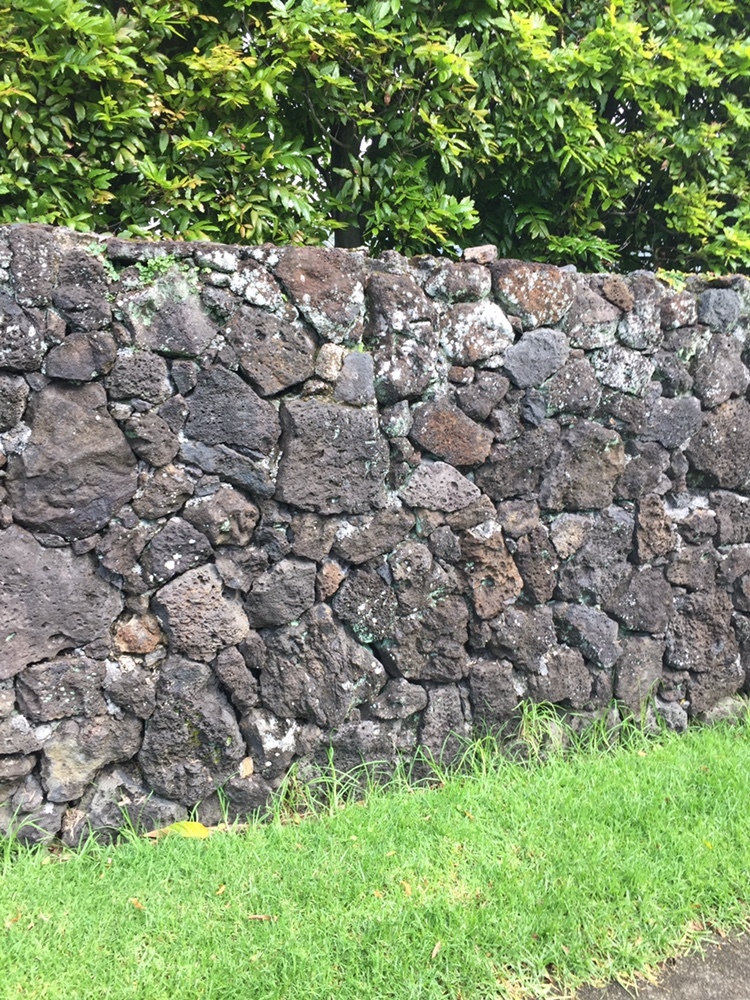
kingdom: Plantae
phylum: Tracheophyta
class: Polypodiopsida
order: Polypodiales
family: Aspleniaceae
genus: Asplenium
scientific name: Asplenium flabellifolium
